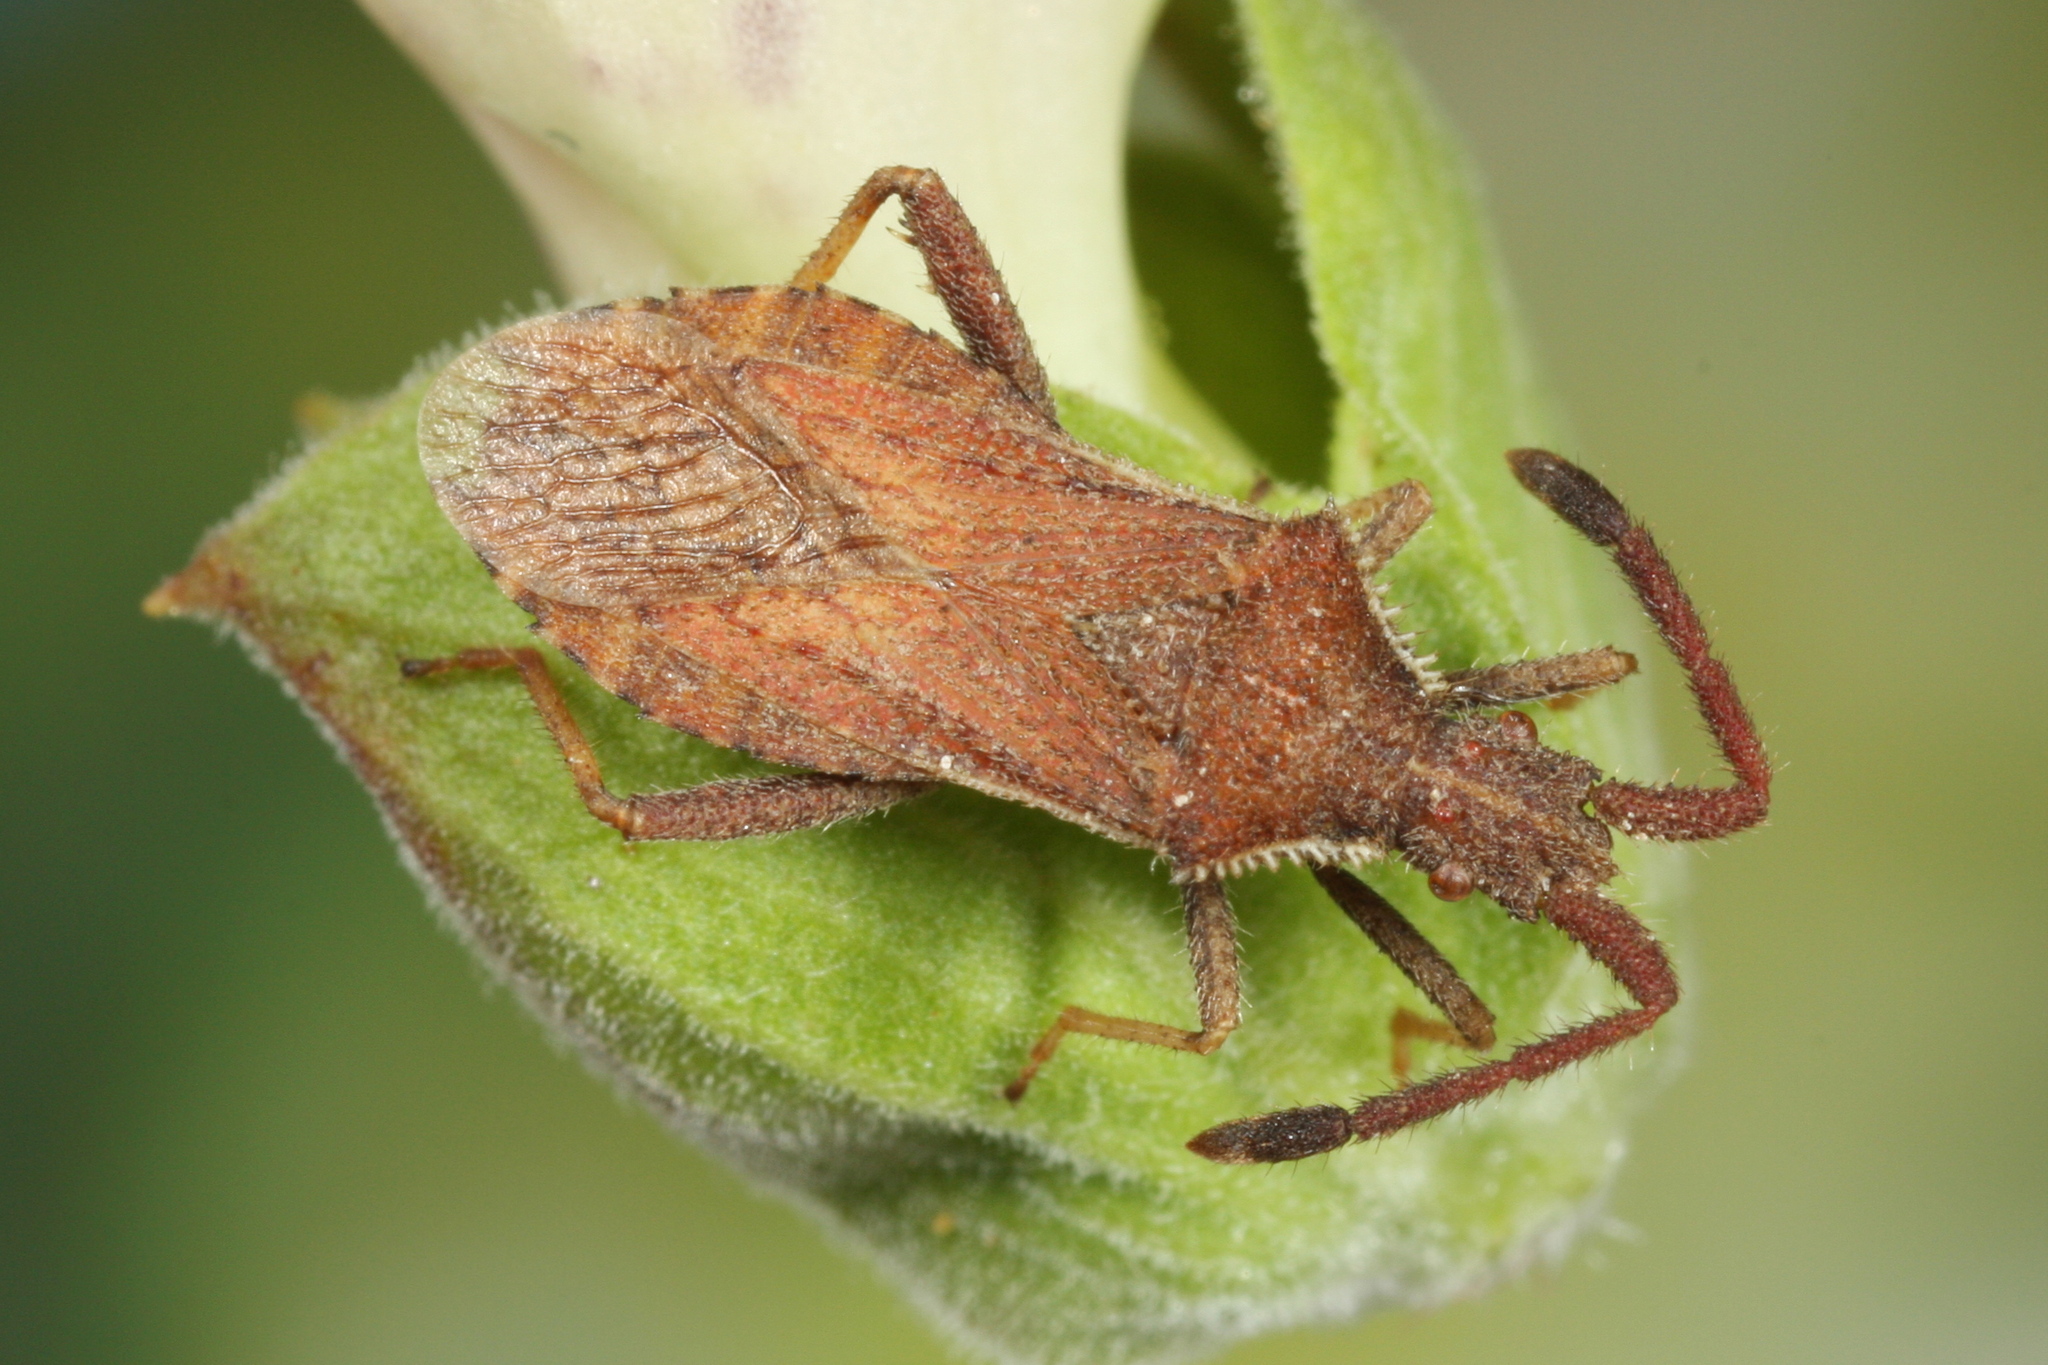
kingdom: Animalia
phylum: Arthropoda
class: Insecta
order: Hemiptera
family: Coreidae
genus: Coriomeris
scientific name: Coriomeris denticulatus
